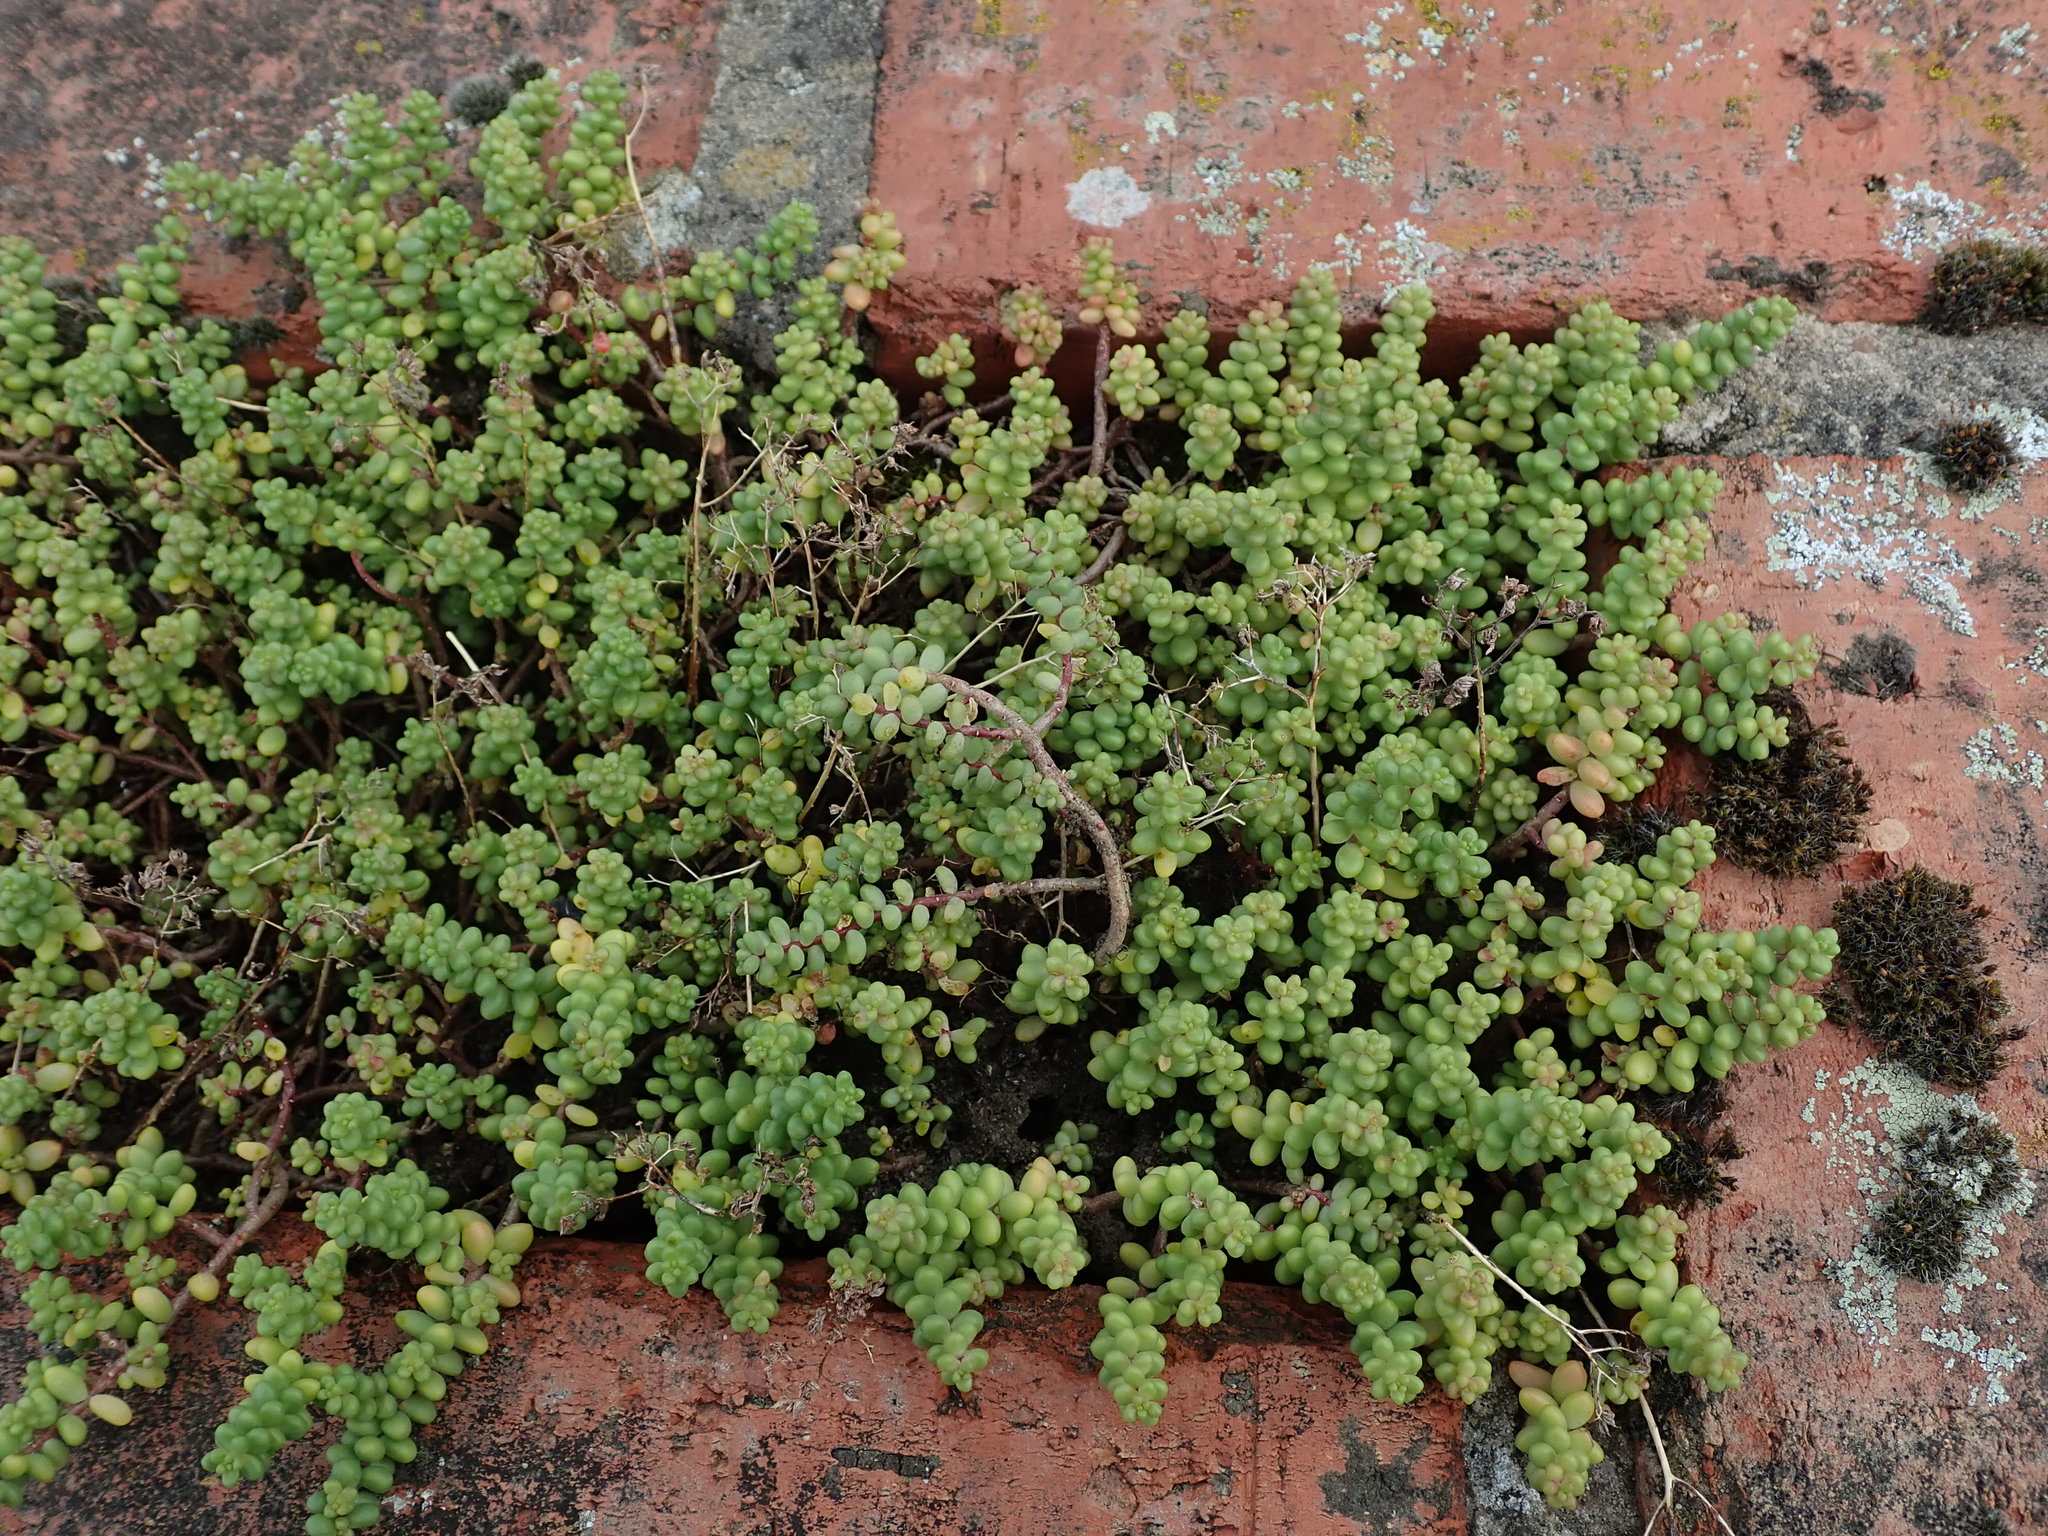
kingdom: Plantae
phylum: Tracheophyta
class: Magnoliopsida
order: Saxifragales
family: Crassulaceae
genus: Sedum
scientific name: Sedum album
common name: White stonecrop
